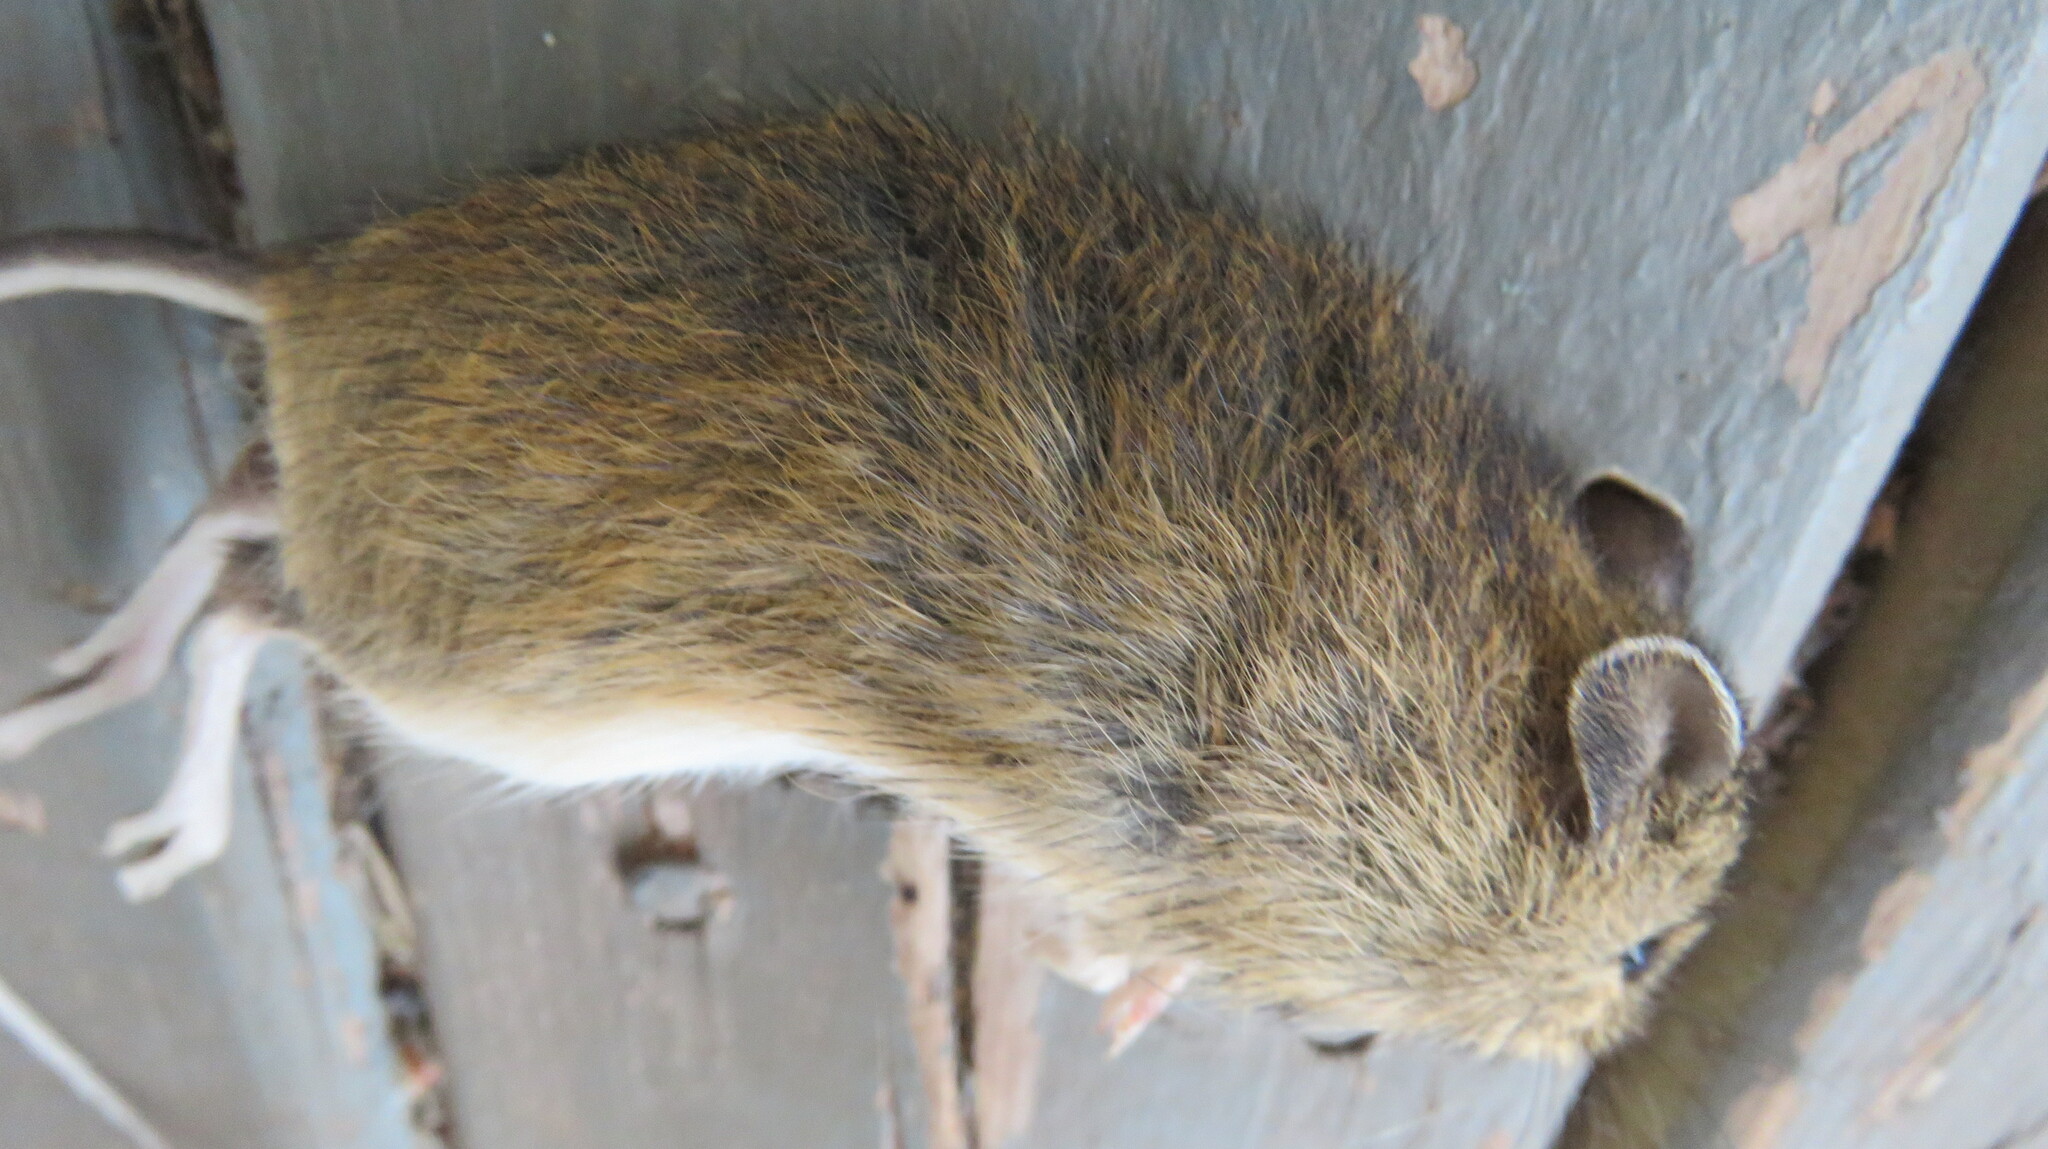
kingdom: Animalia
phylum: Chordata
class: Mammalia
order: Rodentia
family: Dipodidae
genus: Zapus
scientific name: Zapus hudsonius
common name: Meadow jumping mouse
